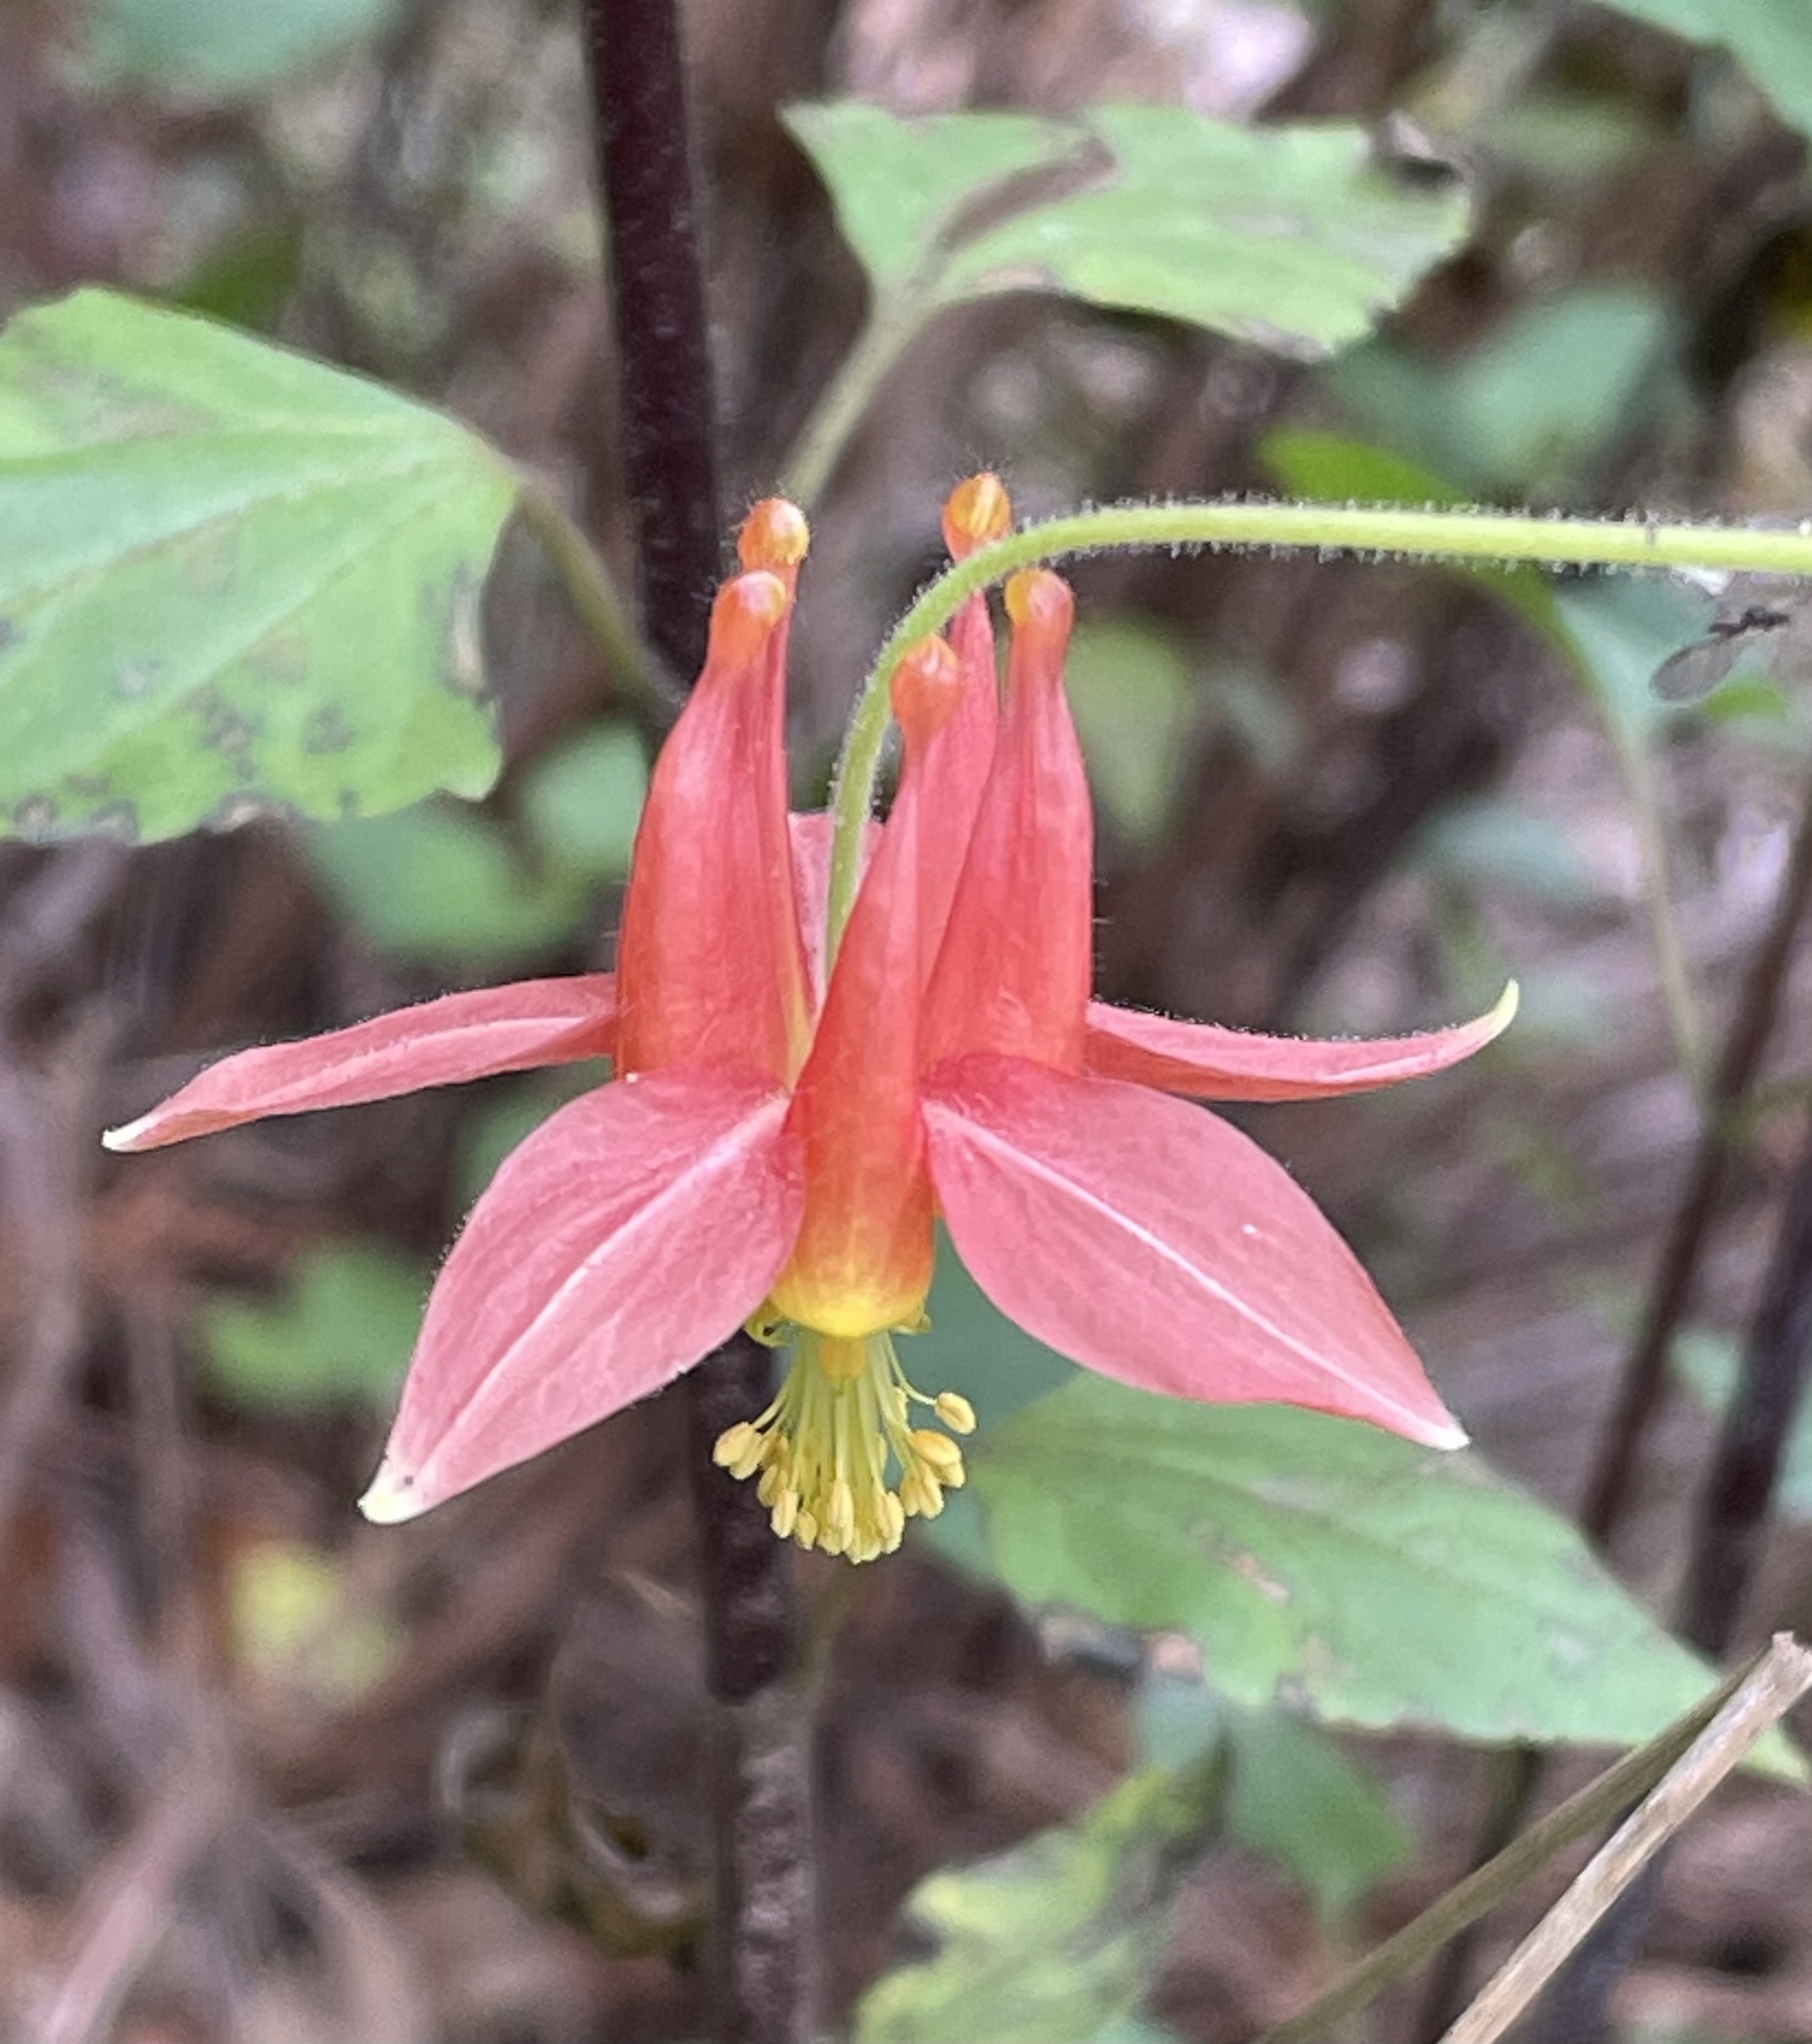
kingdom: Plantae
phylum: Tracheophyta
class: Magnoliopsida
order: Ranunculales
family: Ranunculaceae
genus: Aquilegia
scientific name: Aquilegia formosa
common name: Sitka columbine
